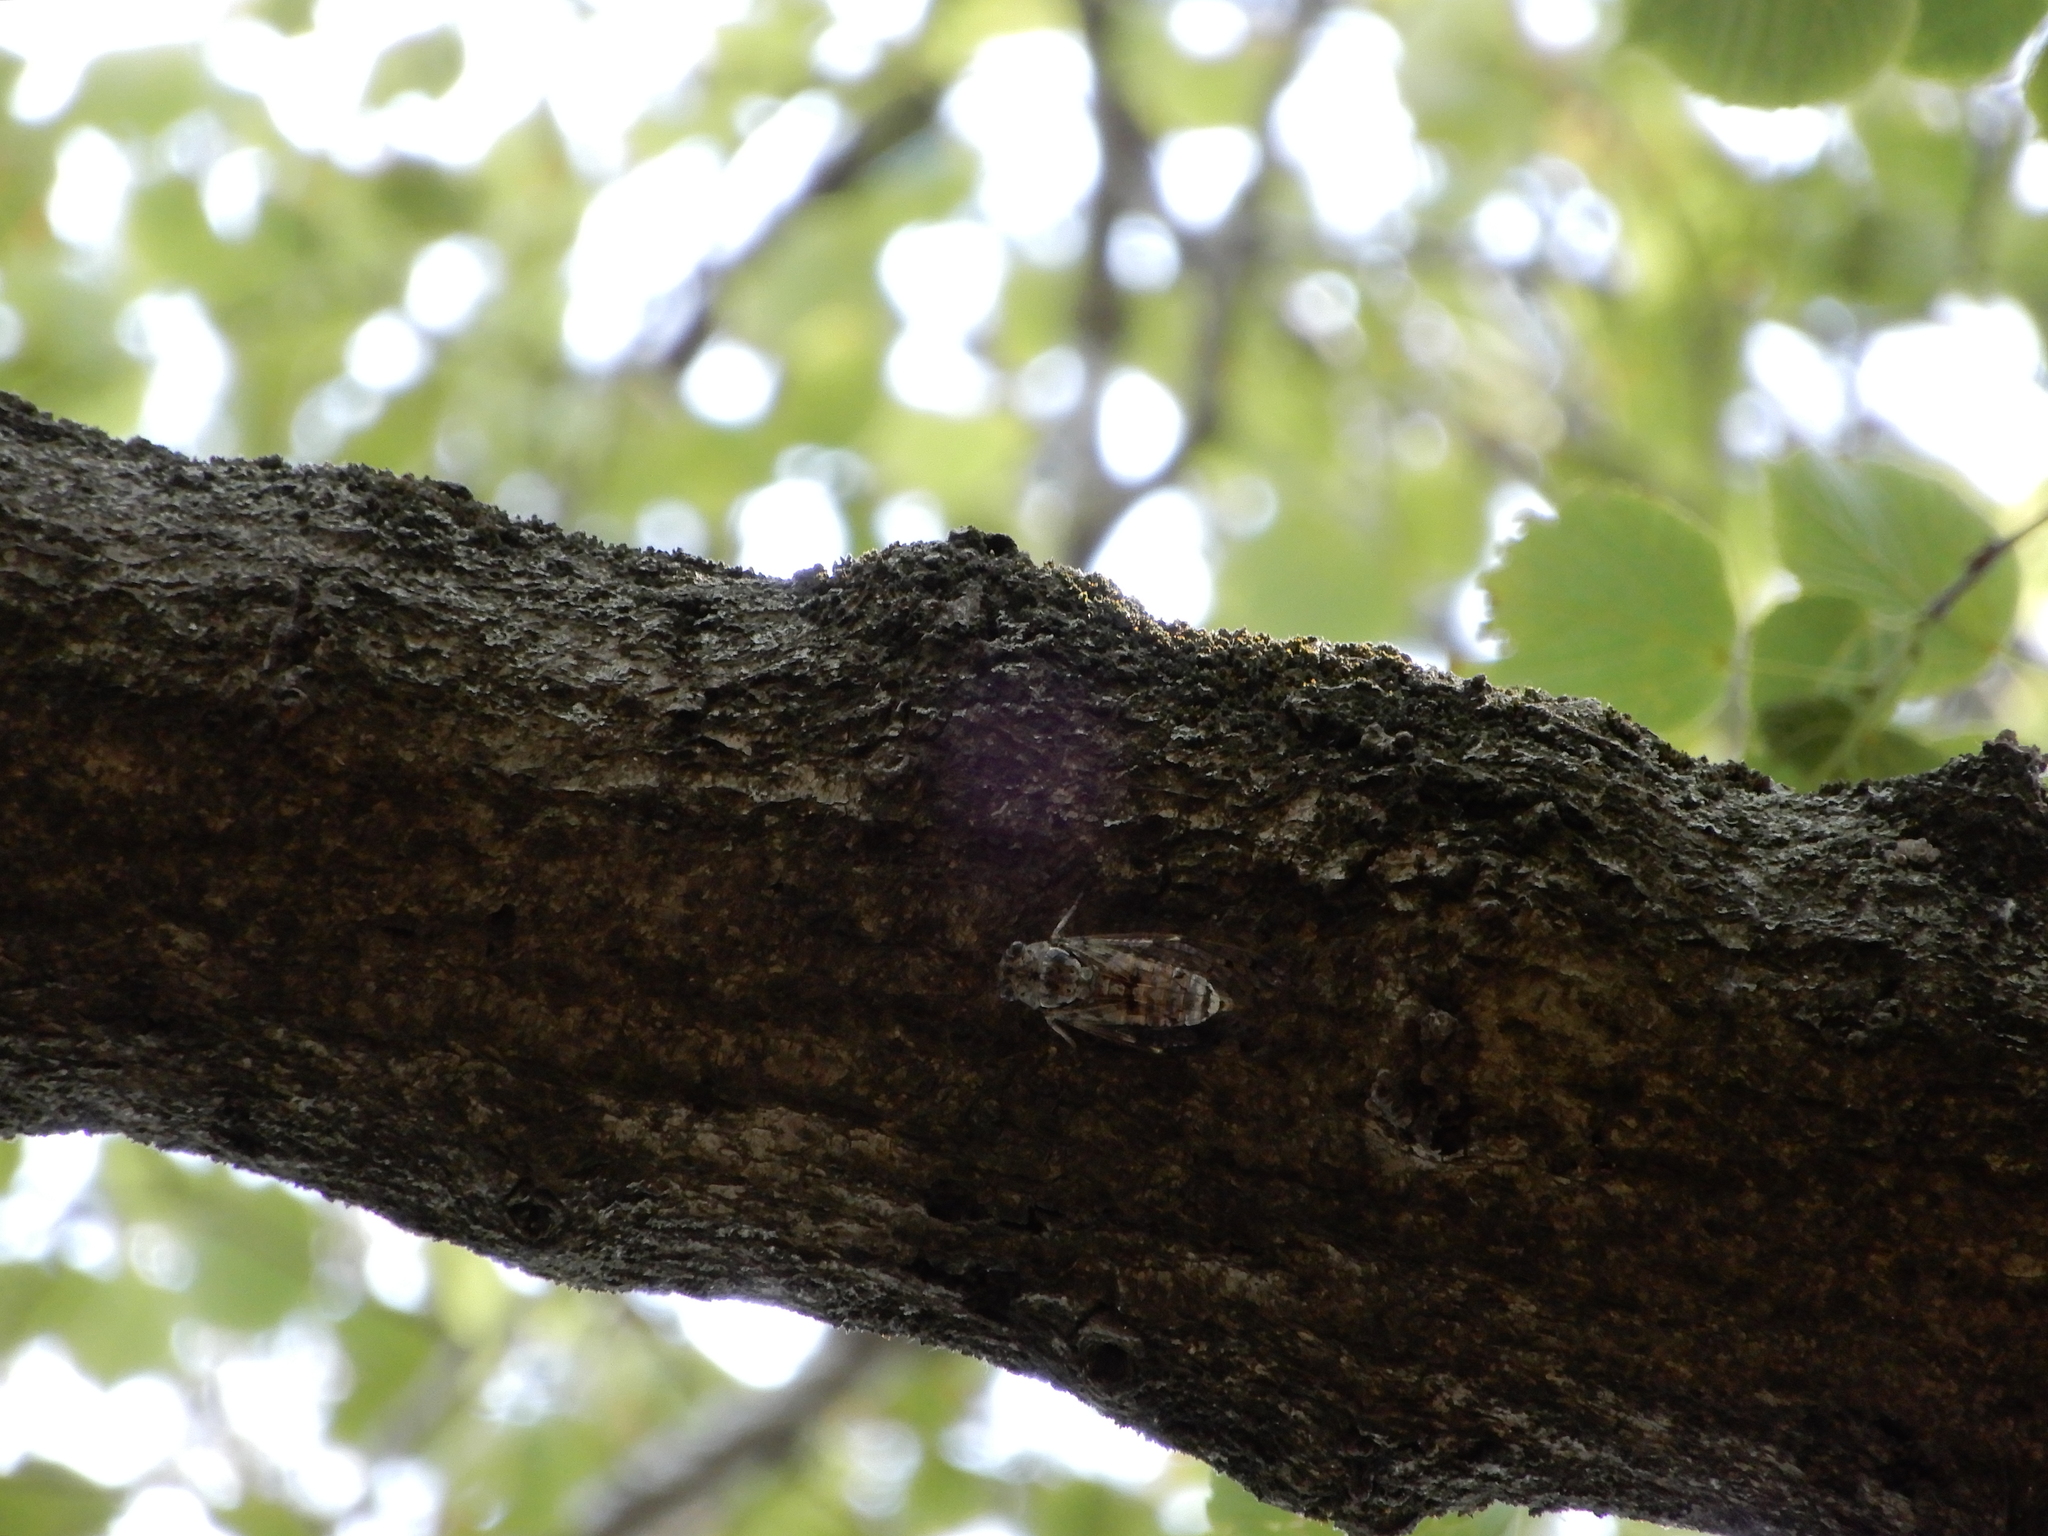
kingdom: Animalia
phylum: Arthropoda
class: Insecta
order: Hemiptera
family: Cicadidae
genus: Cicada
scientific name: Cicada orni
